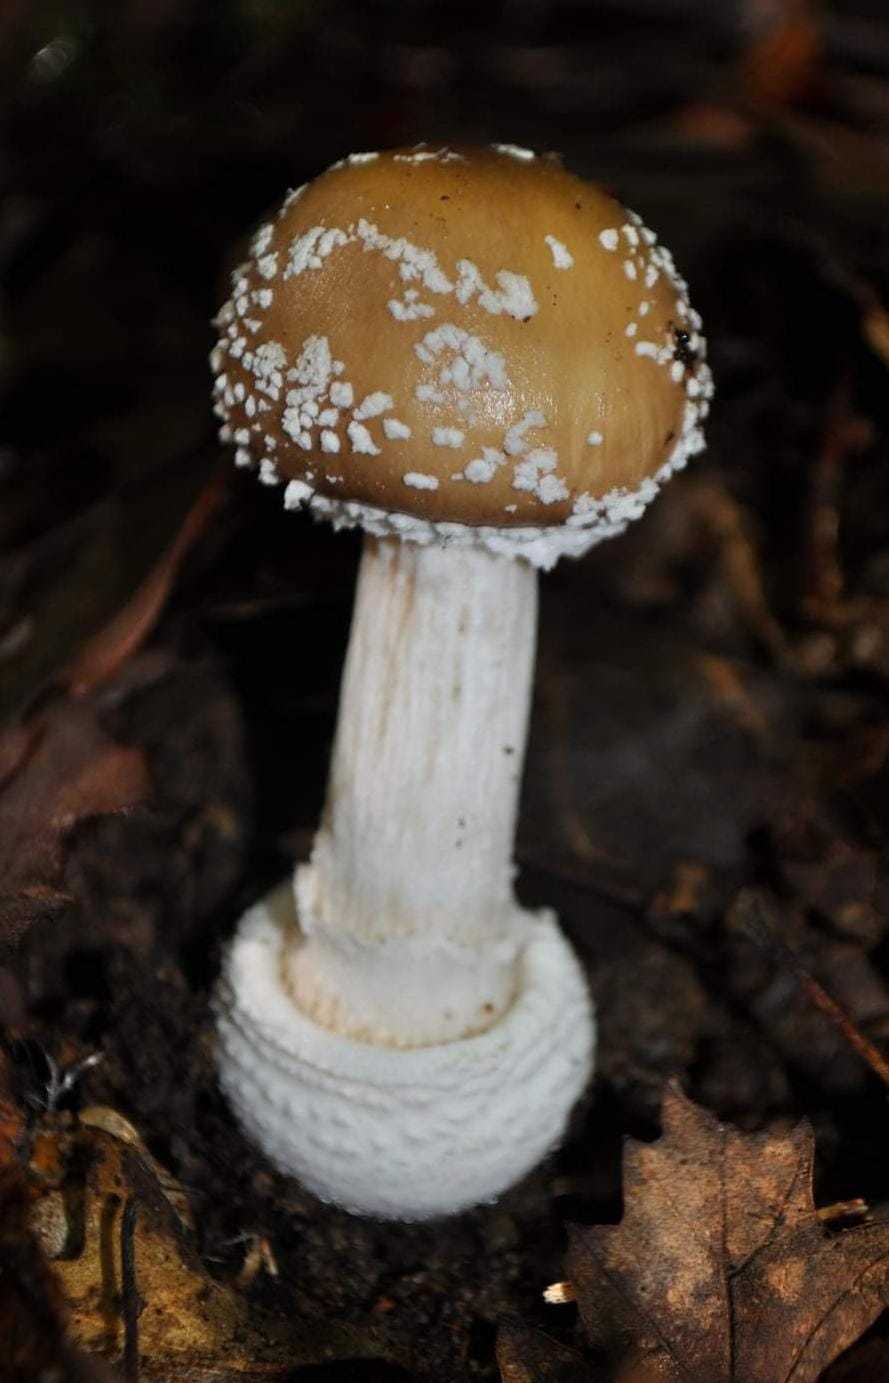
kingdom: Fungi
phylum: Basidiomycota
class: Agaricomycetes
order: Agaricales
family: Amanitaceae
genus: Amanita
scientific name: Amanita pantherina
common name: Panthercap
